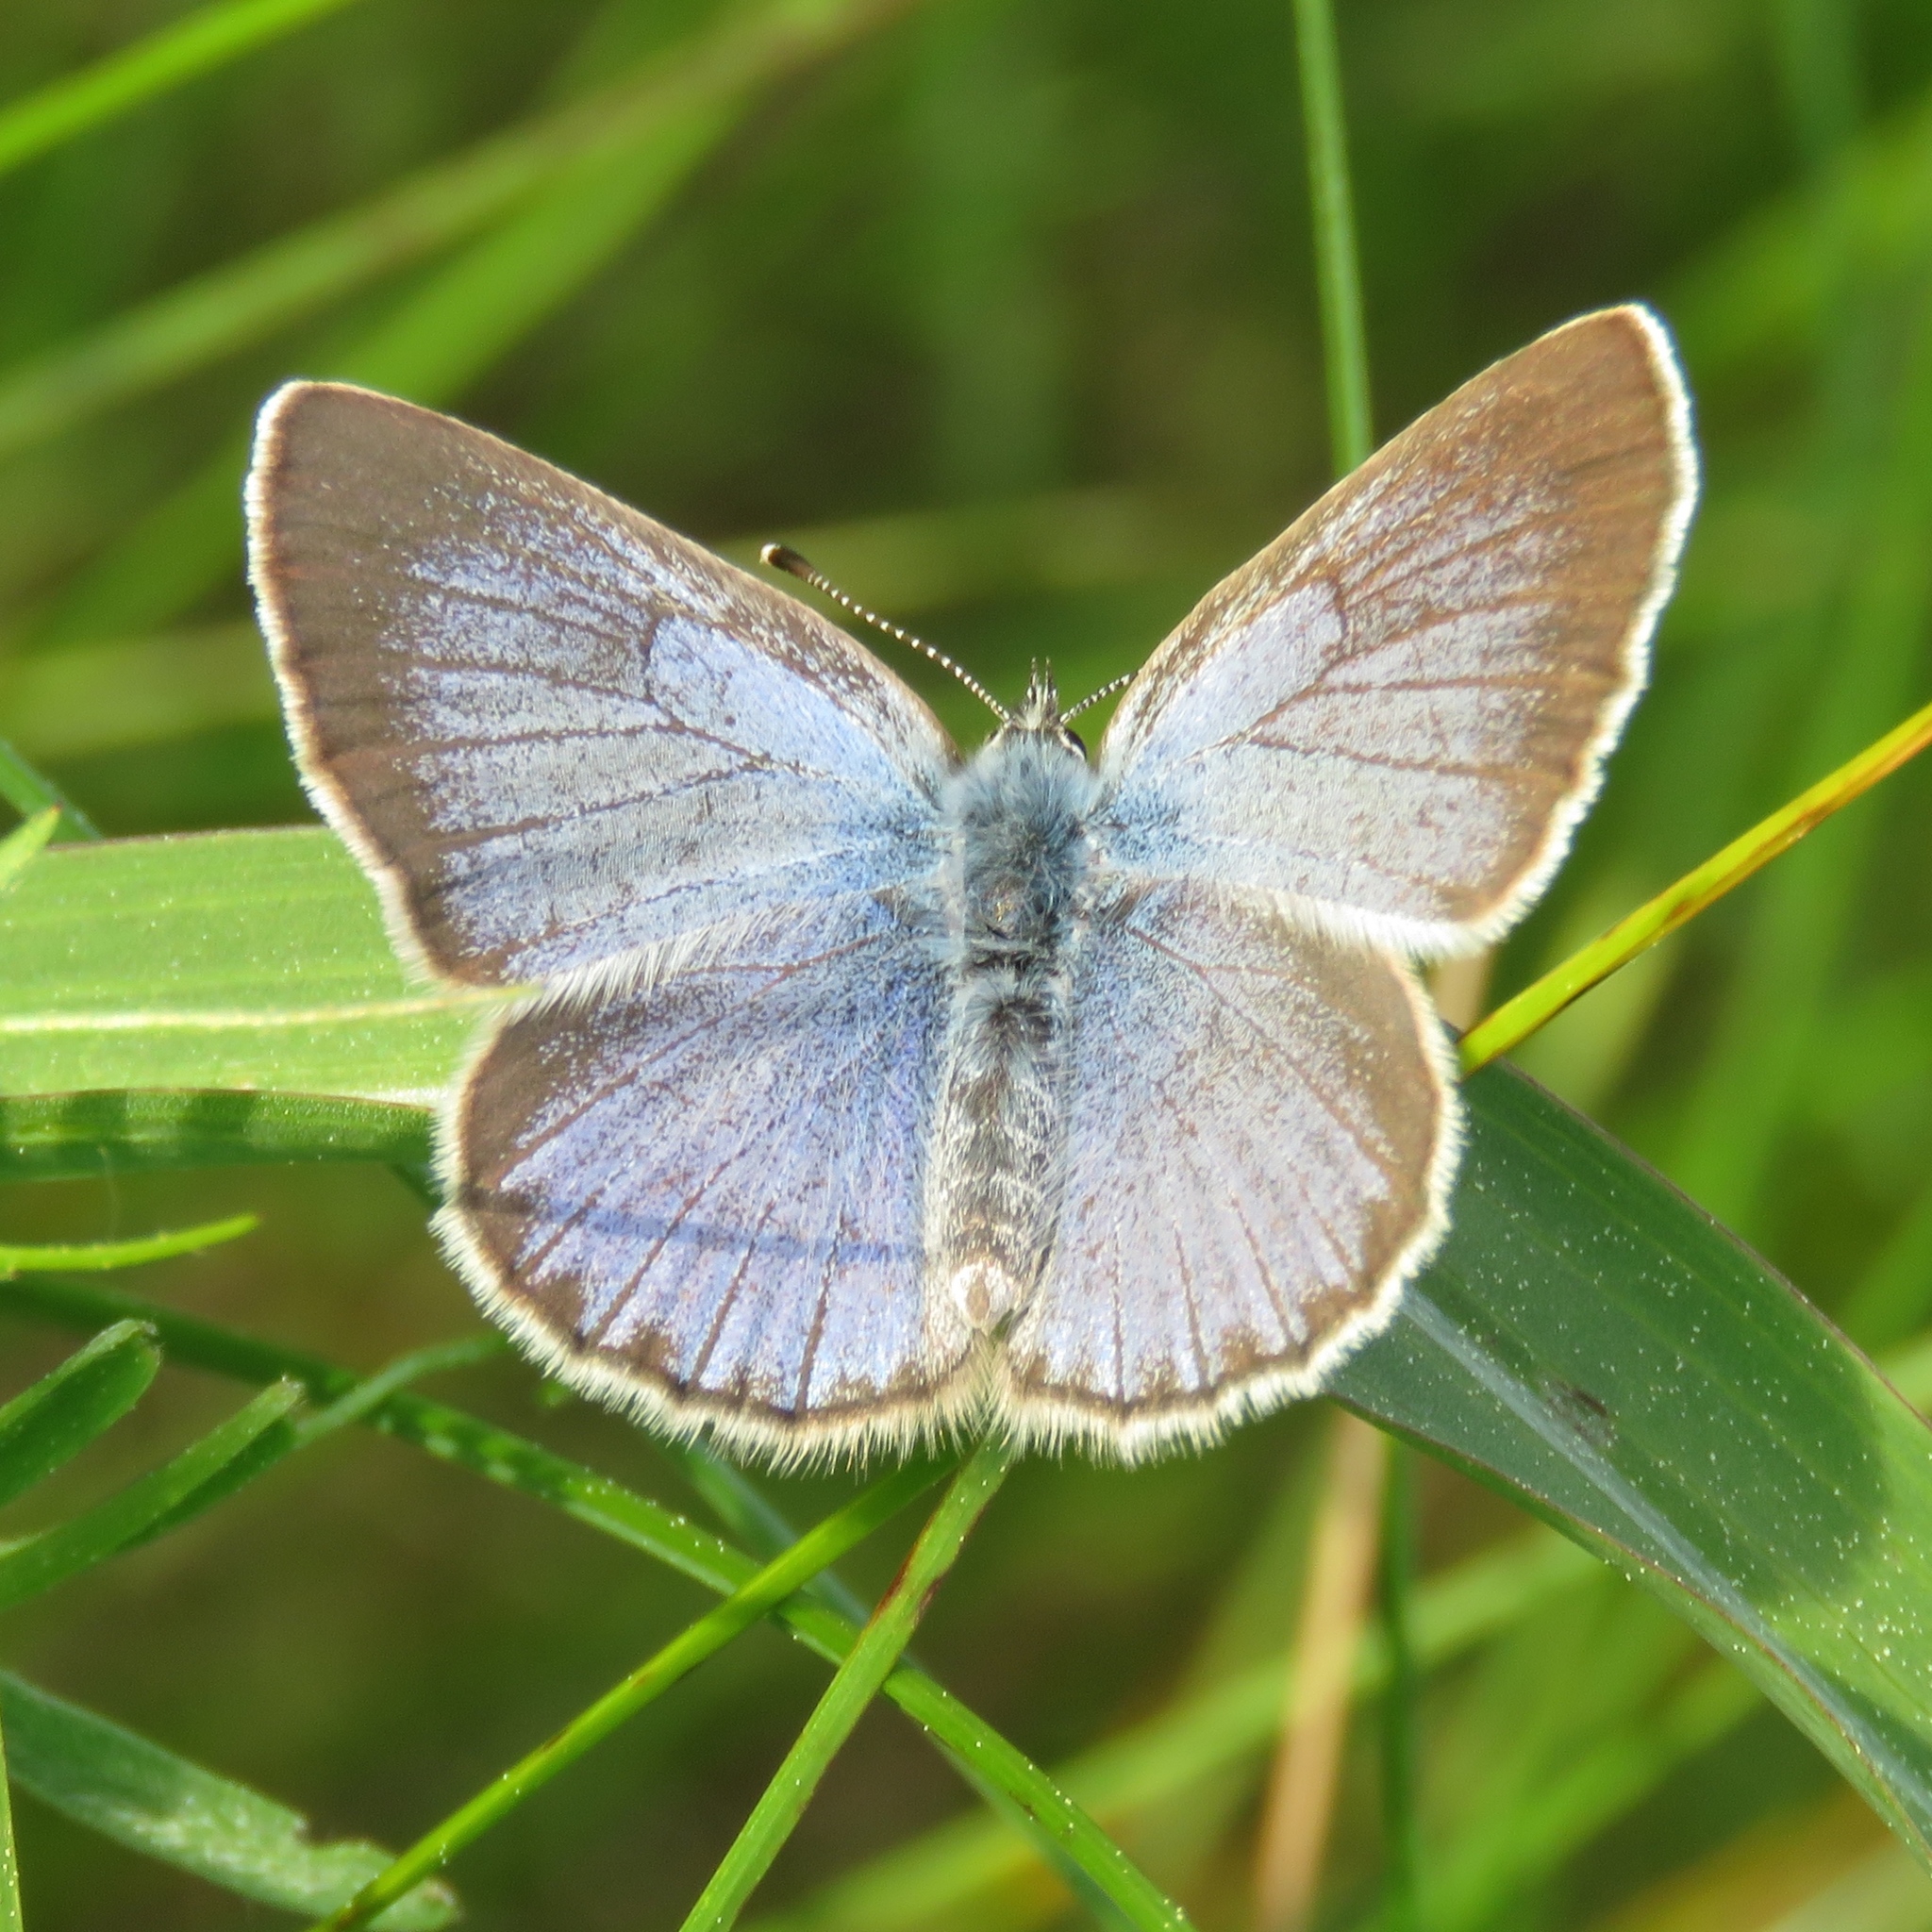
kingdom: Animalia
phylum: Arthropoda
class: Insecta
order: Lepidoptera
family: Lycaenidae
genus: Glaucopsyche
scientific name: Glaucopsyche lygdamus
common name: Silvery blue
